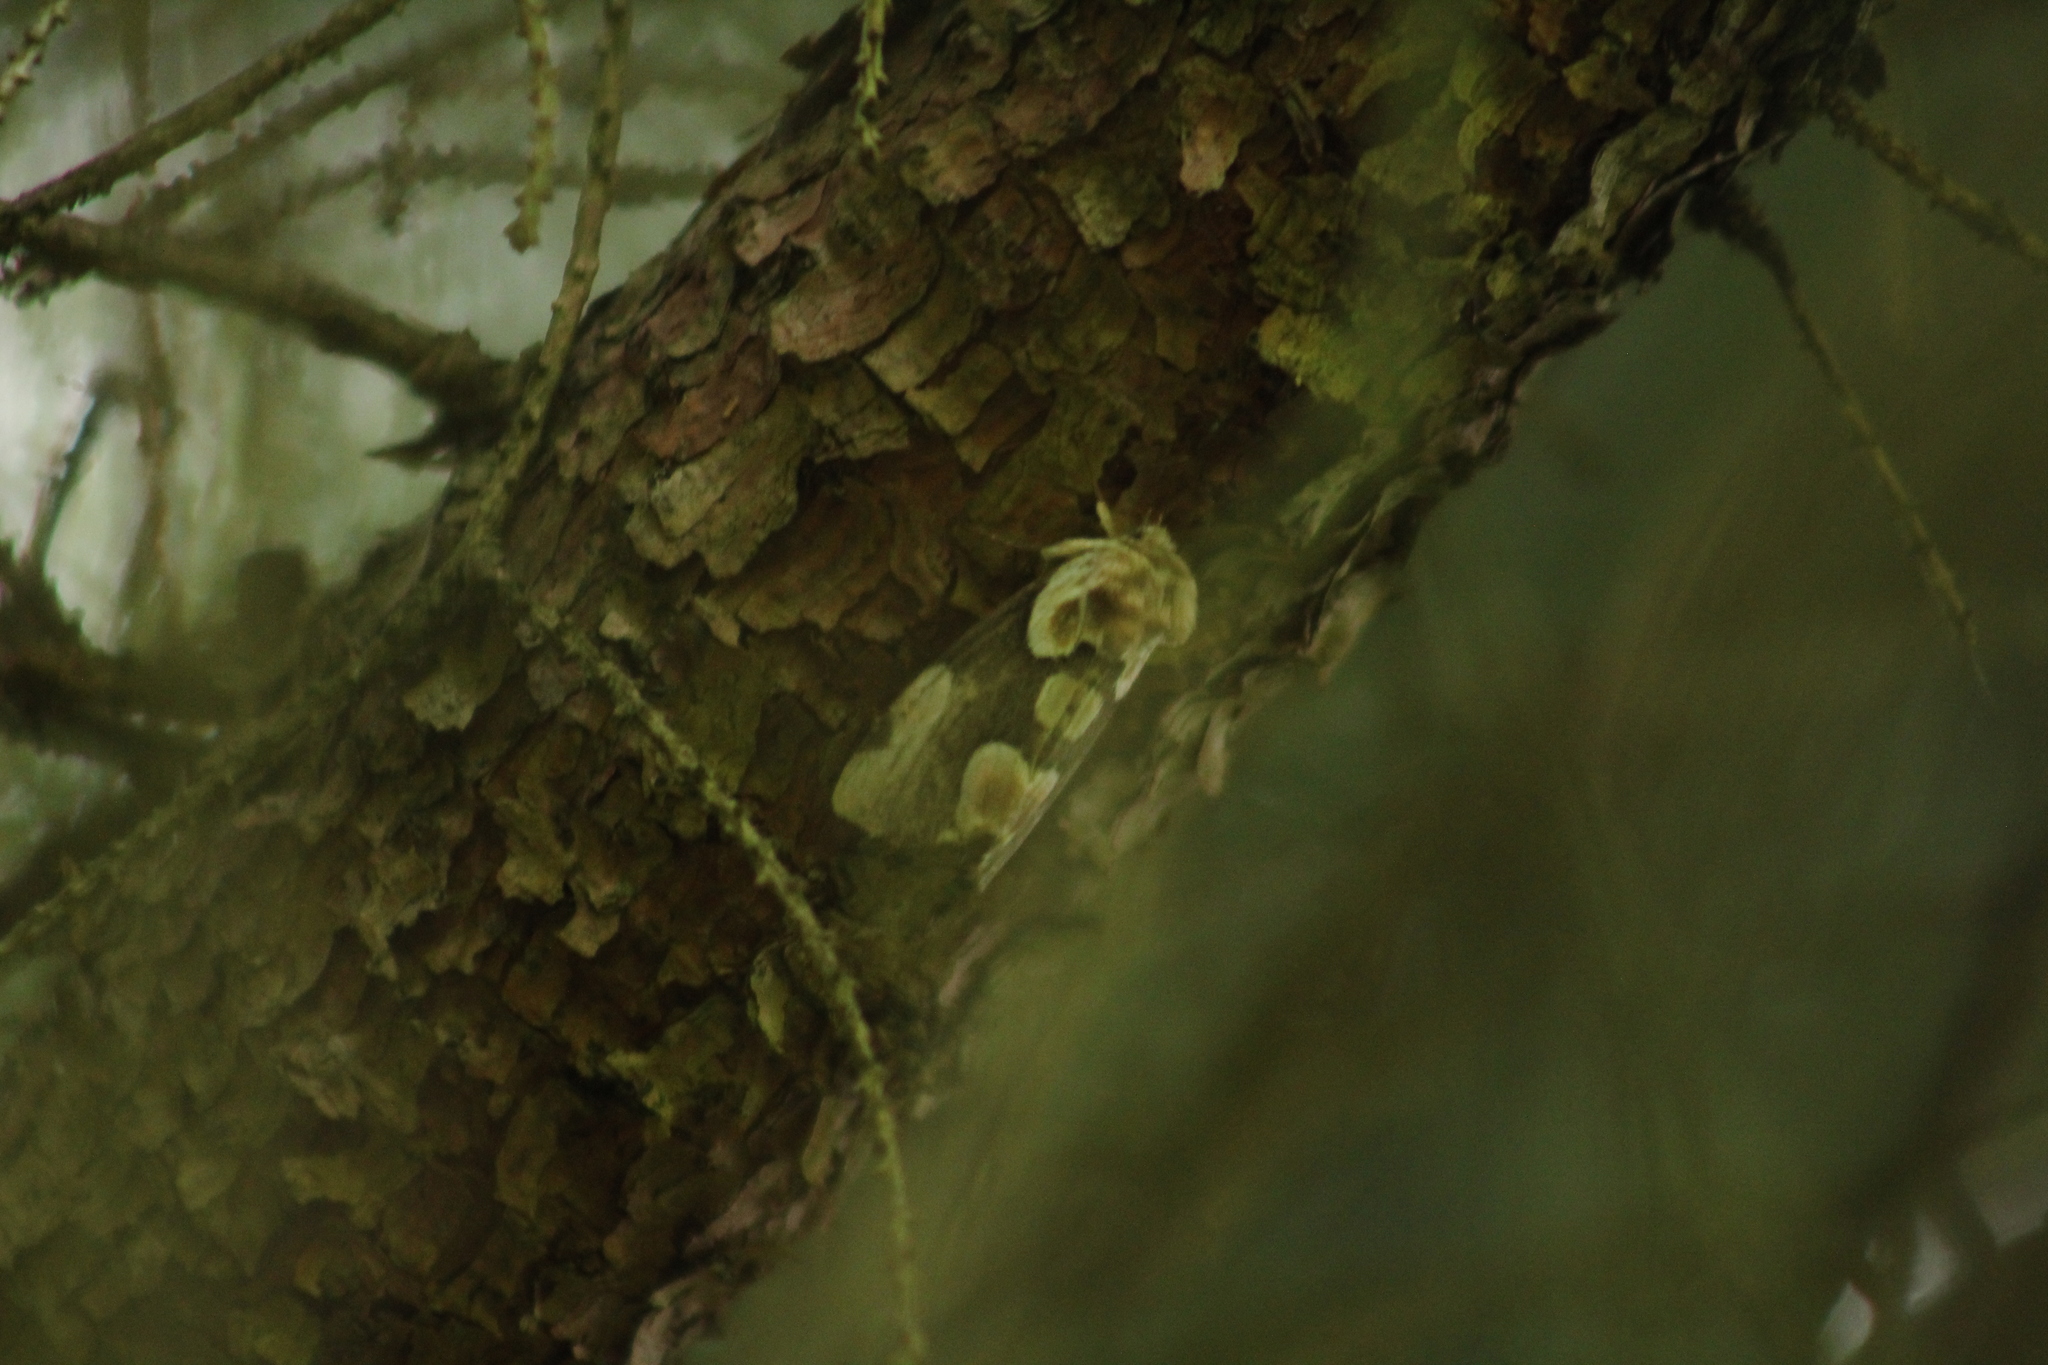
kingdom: Animalia
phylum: Arthropoda
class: Insecta
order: Lepidoptera
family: Drepanidae
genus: Thyatira
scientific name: Thyatira batis
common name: Peach blossom
